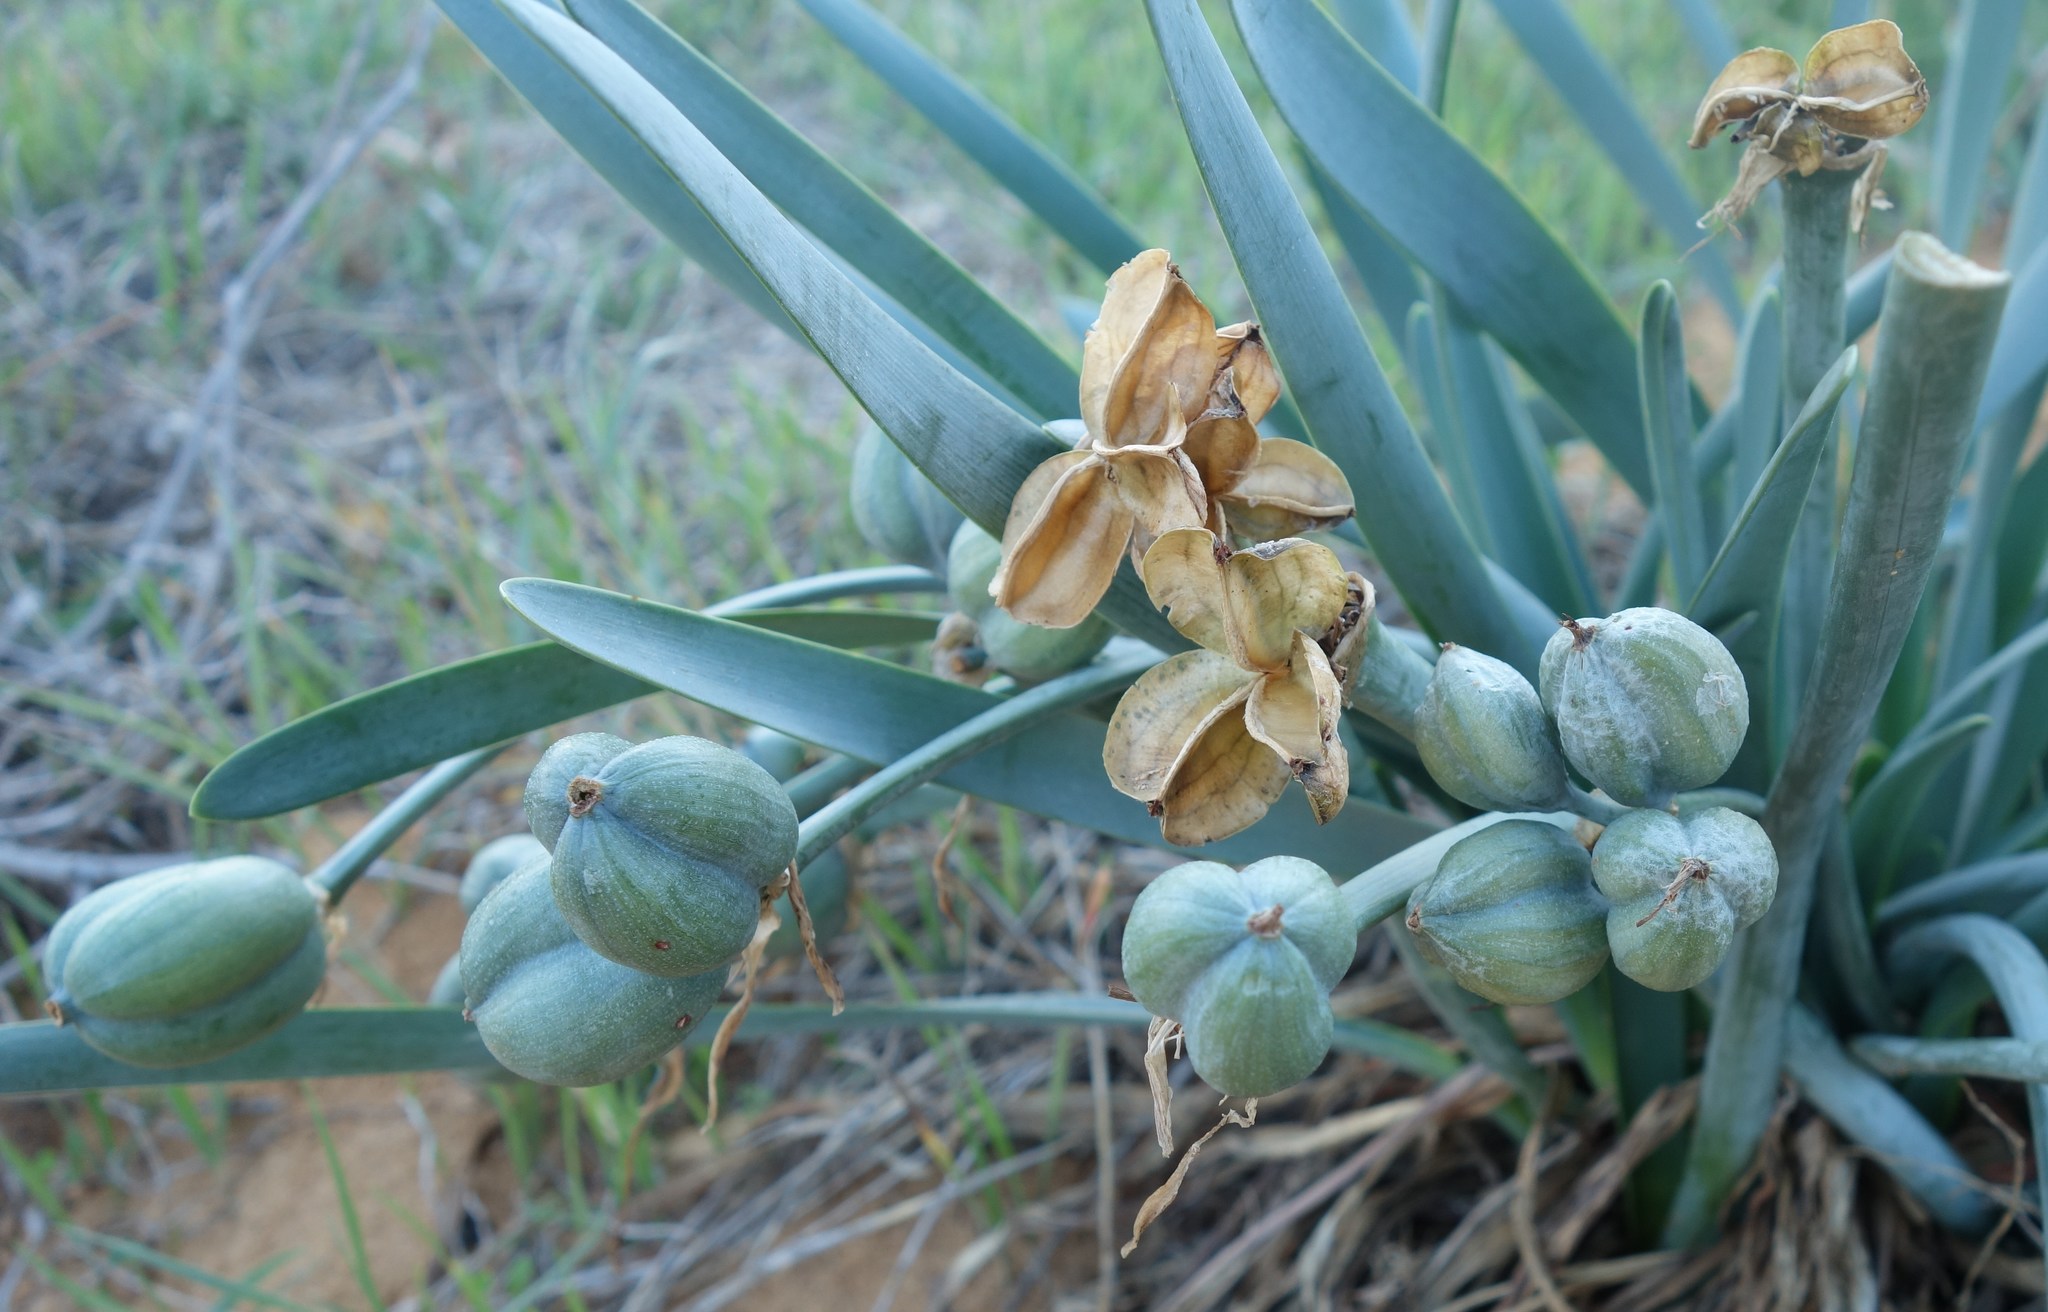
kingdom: Plantae
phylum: Tracheophyta
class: Liliopsida
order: Asparagales
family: Amaryllidaceae
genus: Pancratium
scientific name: Pancratium maritimum
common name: Sea-daffodil
